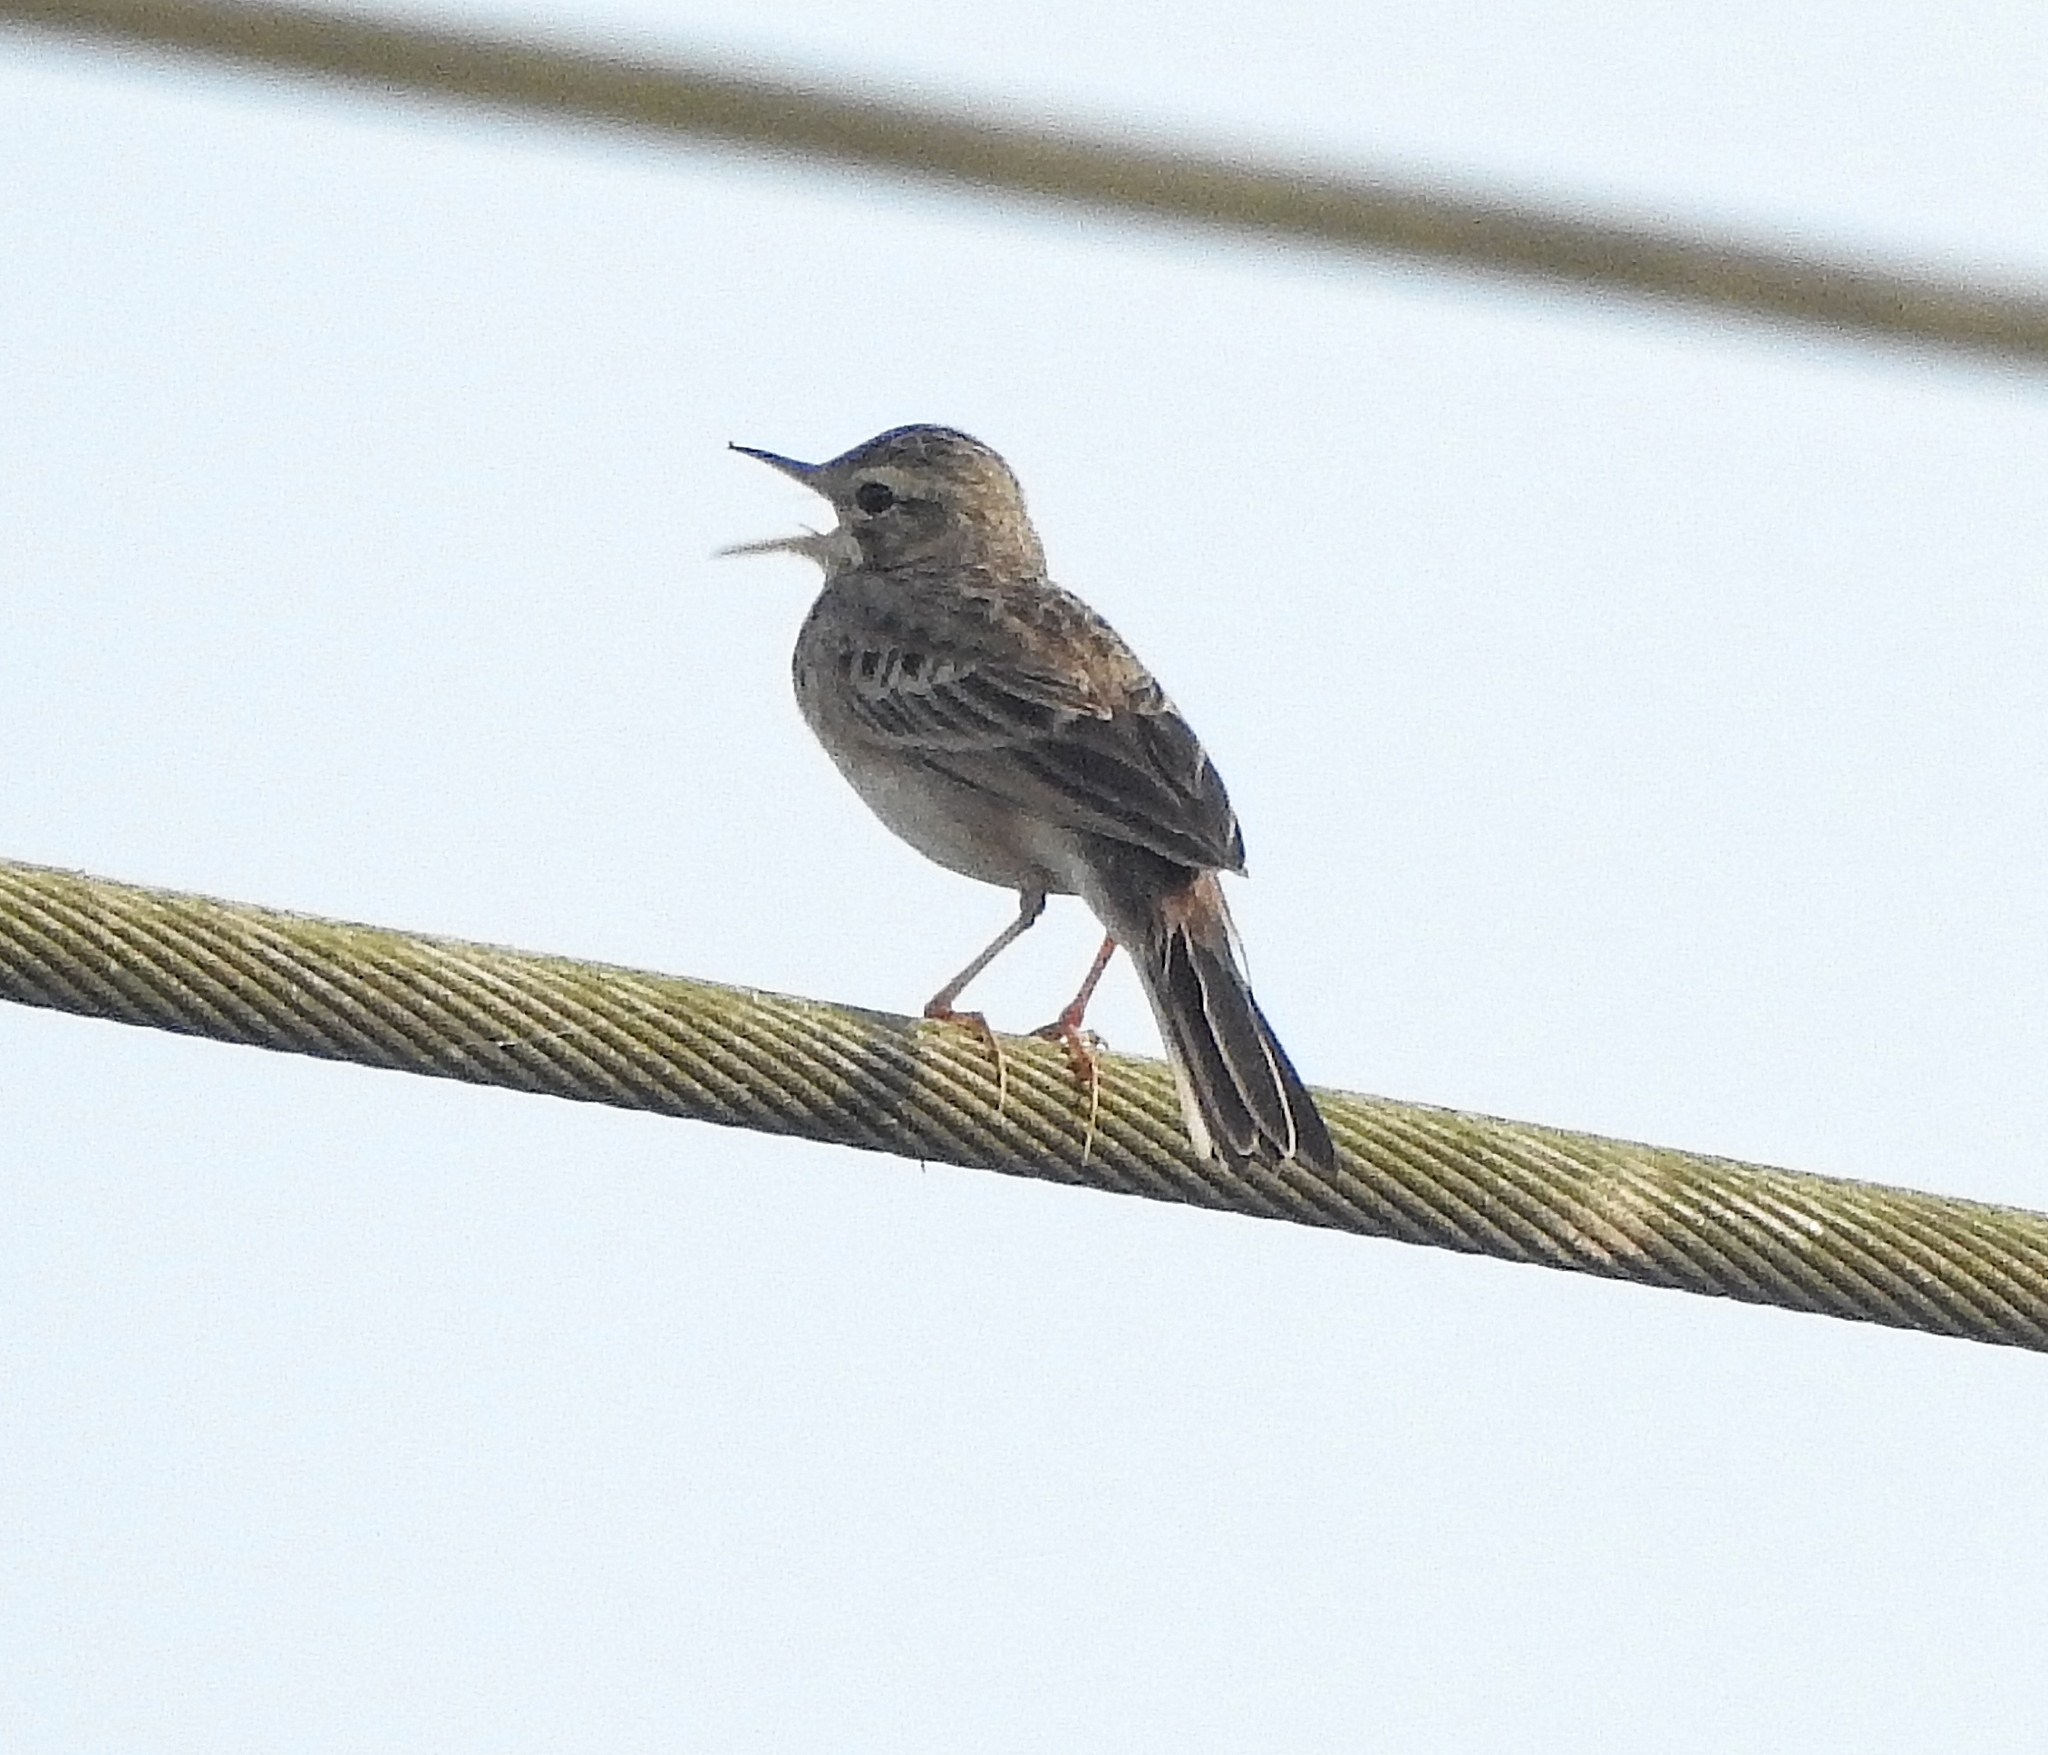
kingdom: Animalia
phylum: Chordata
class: Aves
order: Passeriformes
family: Motacillidae
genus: Anthus
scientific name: Anthus rufulus
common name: Paddyfield pipit
